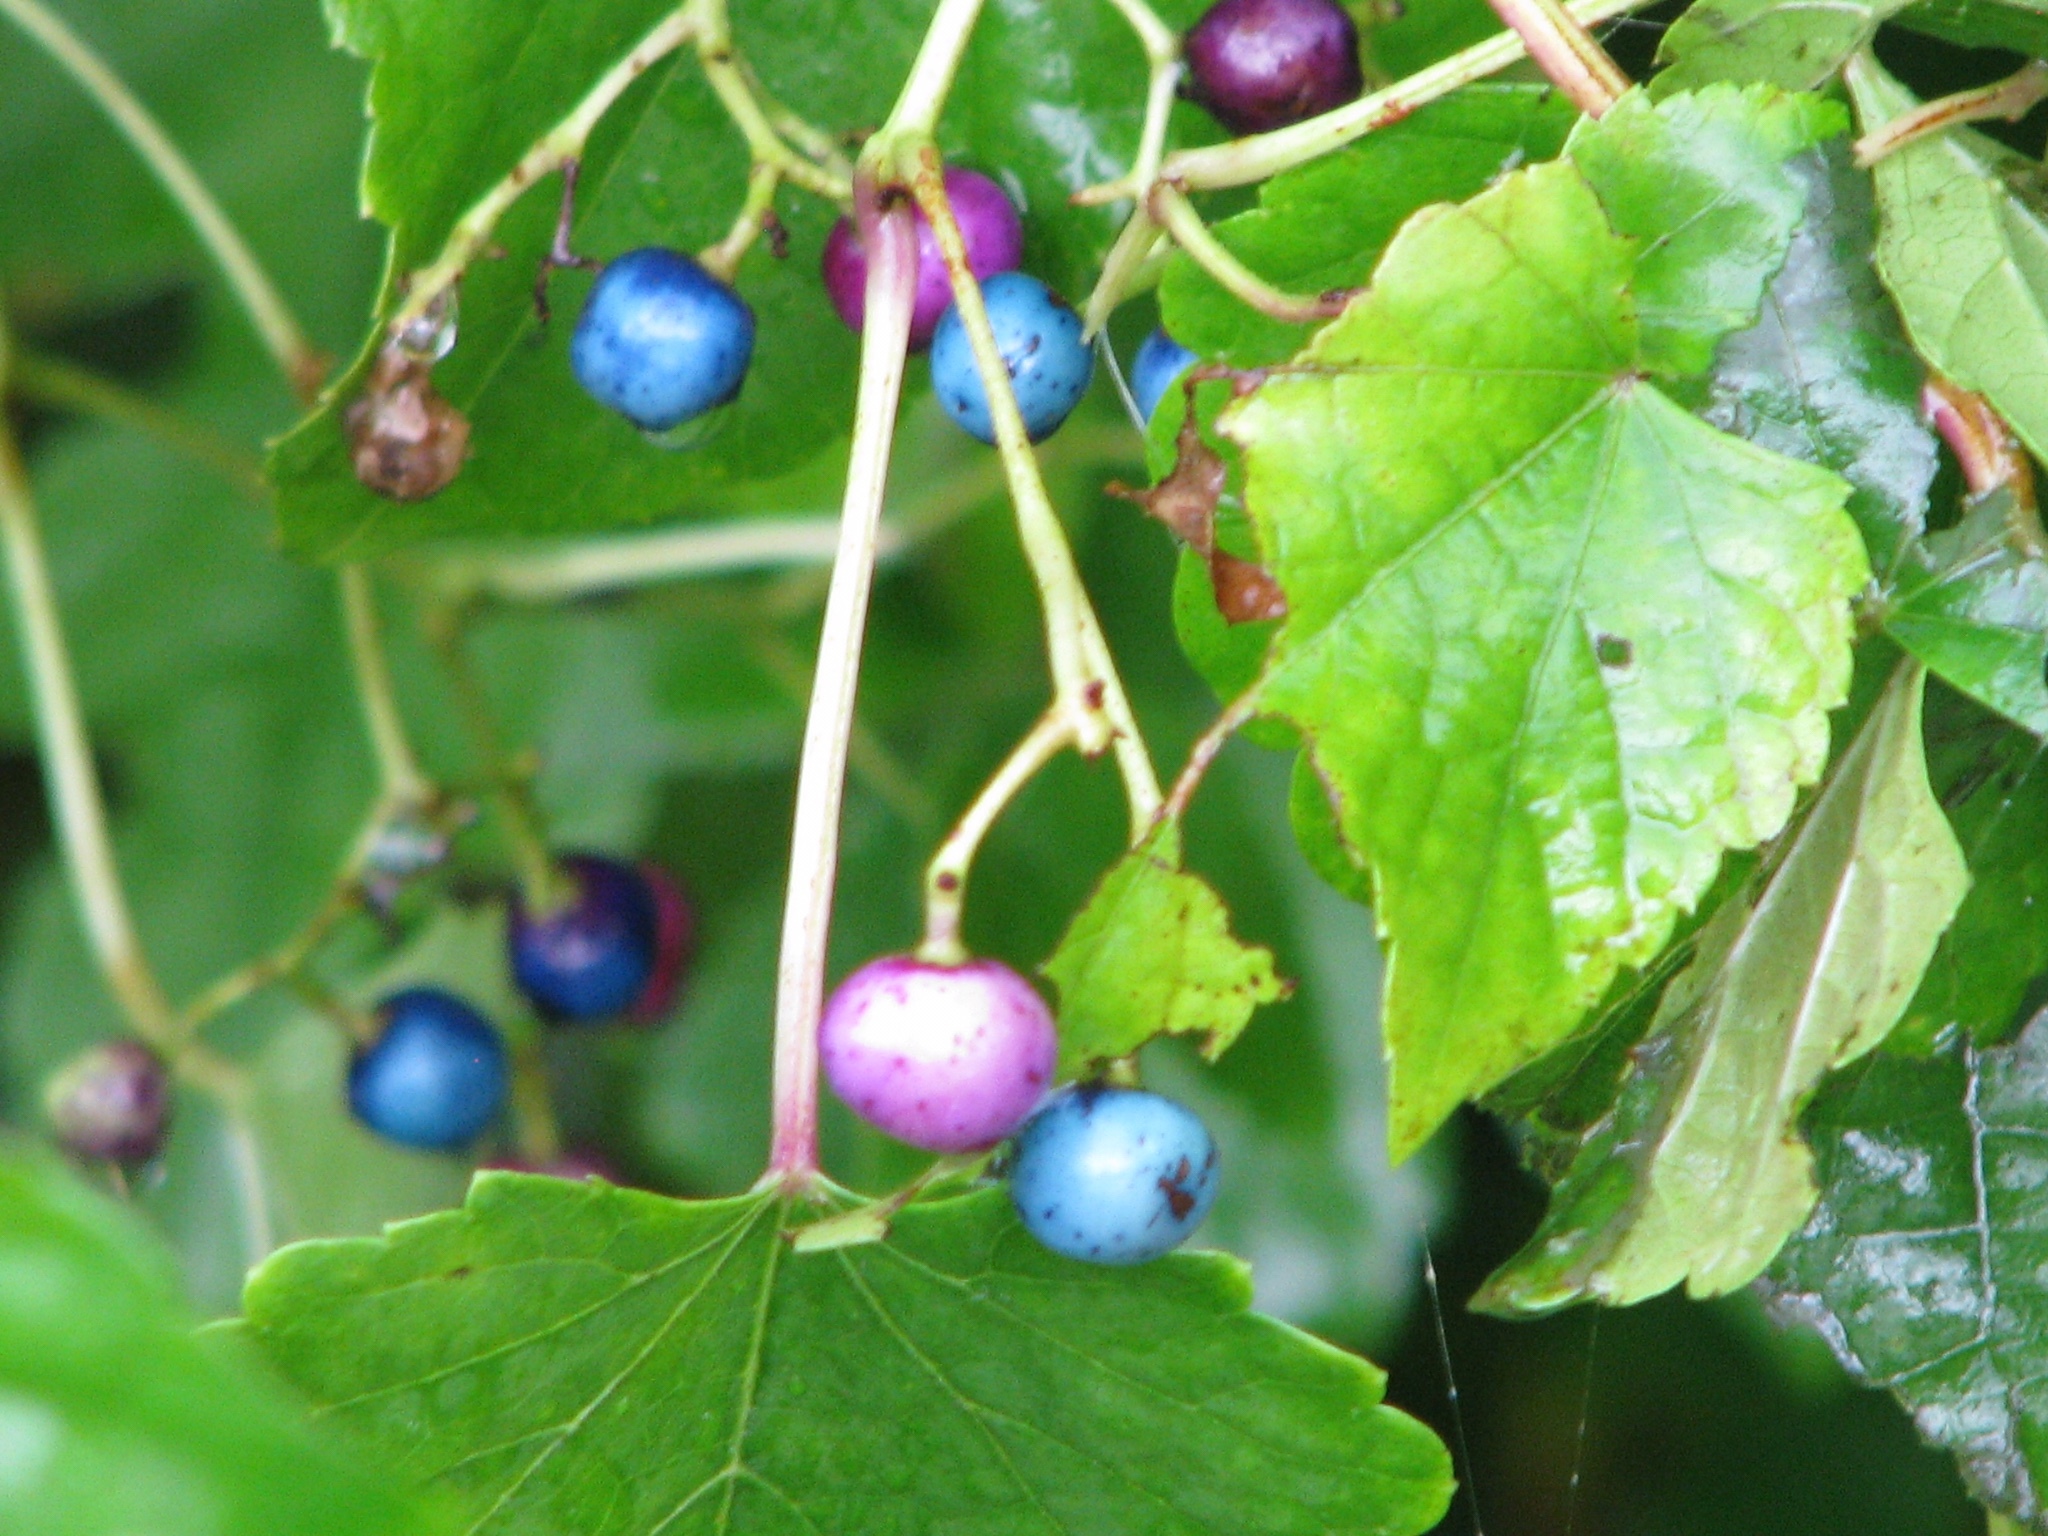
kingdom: Plantae
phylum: Tracheophyta
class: Magnoliopsida
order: Vitales
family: Vitaceae
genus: Ampelopsis
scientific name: Ampelopsis glandulosa
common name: Amur peppervine
